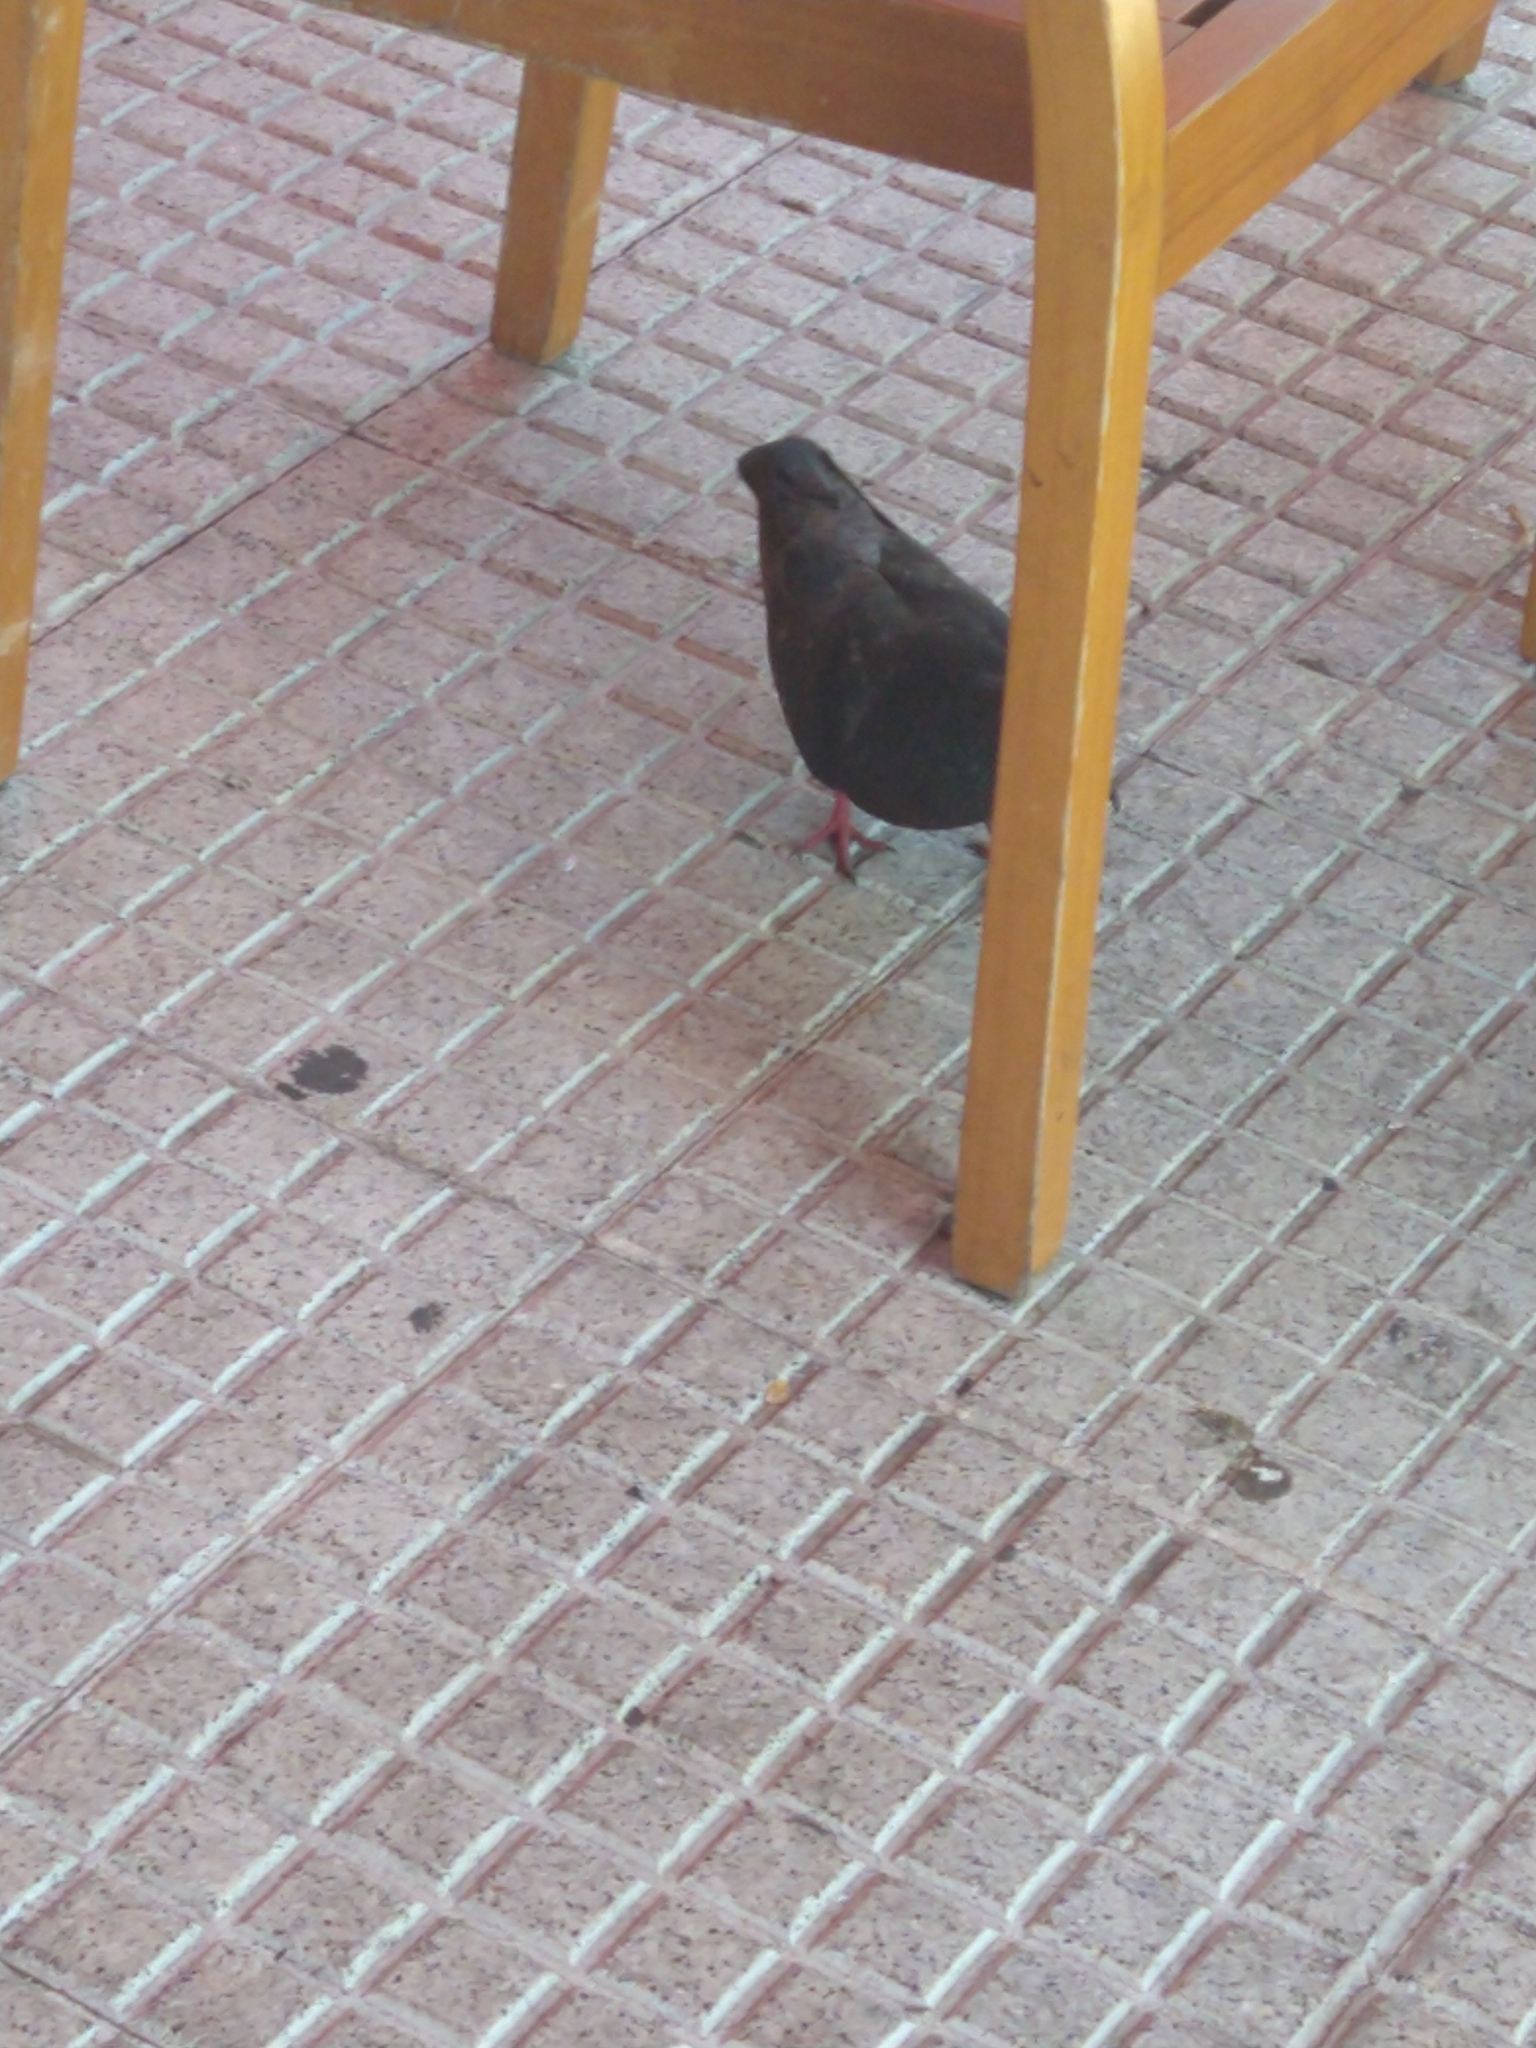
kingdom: Animalia
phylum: Chordata
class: Aves
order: Columbiformes
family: Columbidae
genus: Columba
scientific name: Columba livia
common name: Rock pigeon
